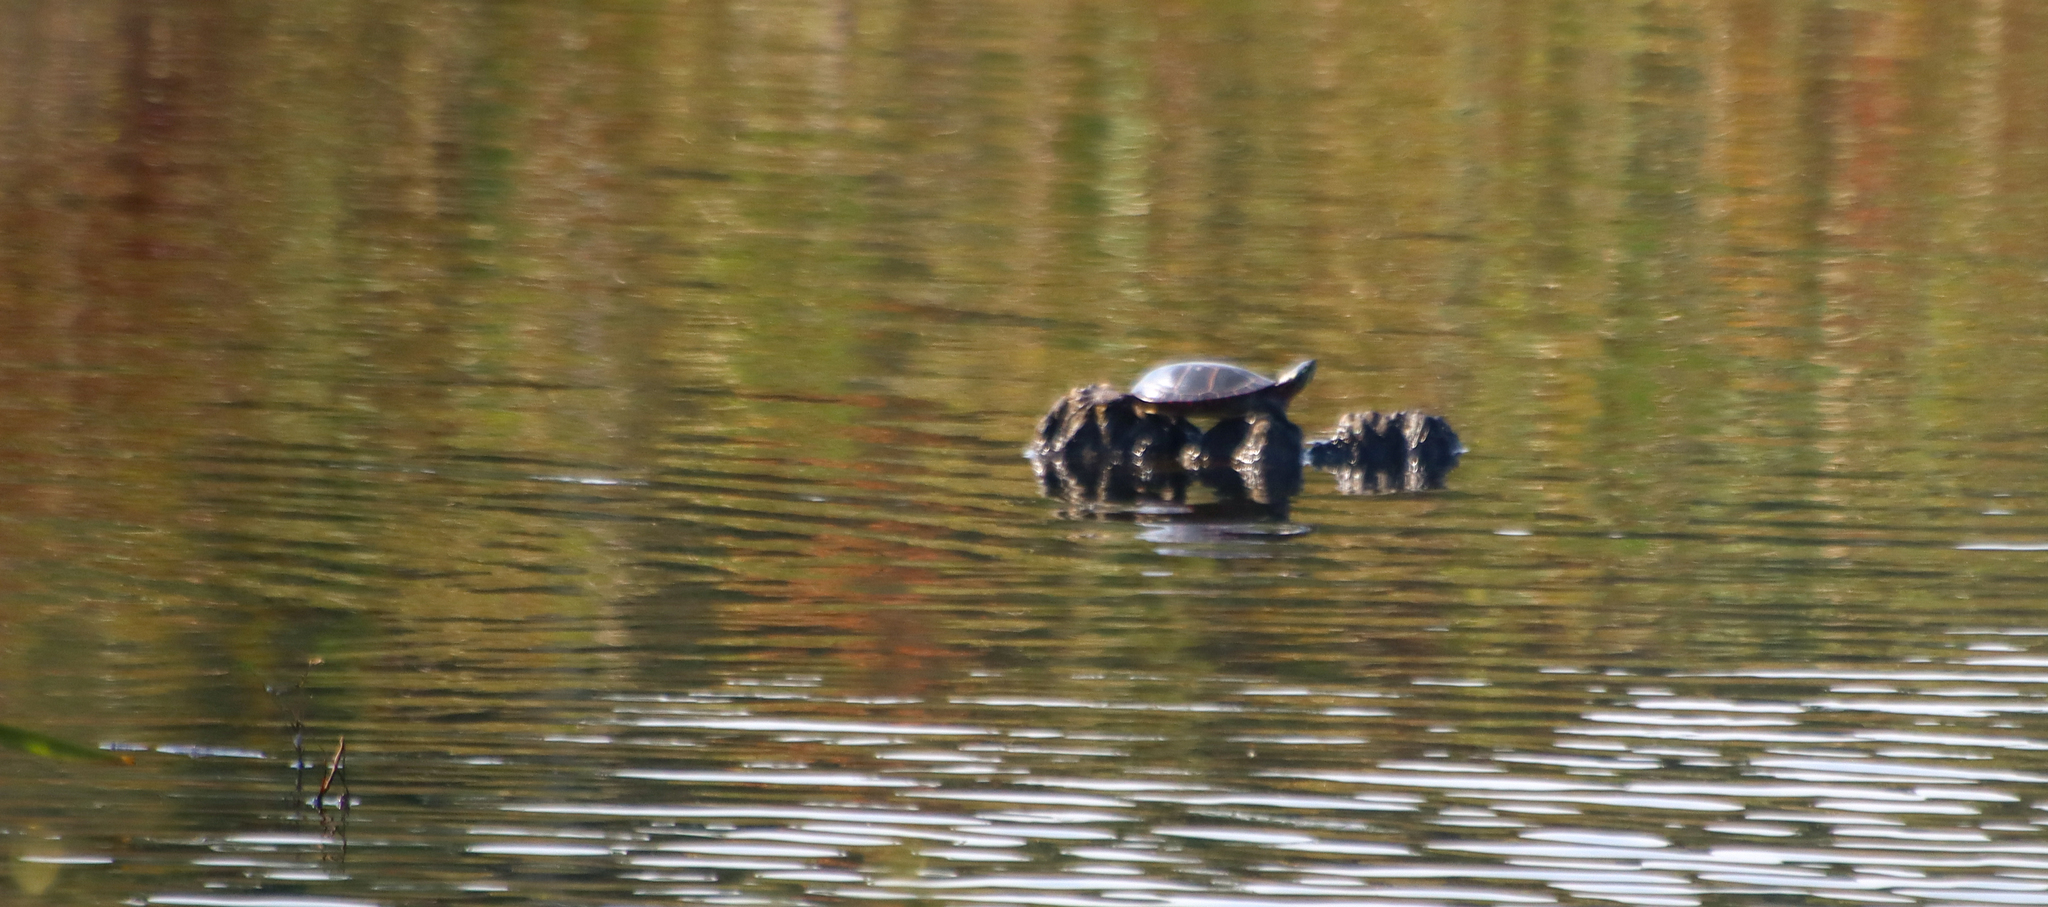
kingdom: Animalia
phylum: Chordata
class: Testudines
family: Emydidae
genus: Chrysemys
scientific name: Chrysemys picta
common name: Painted turtle
